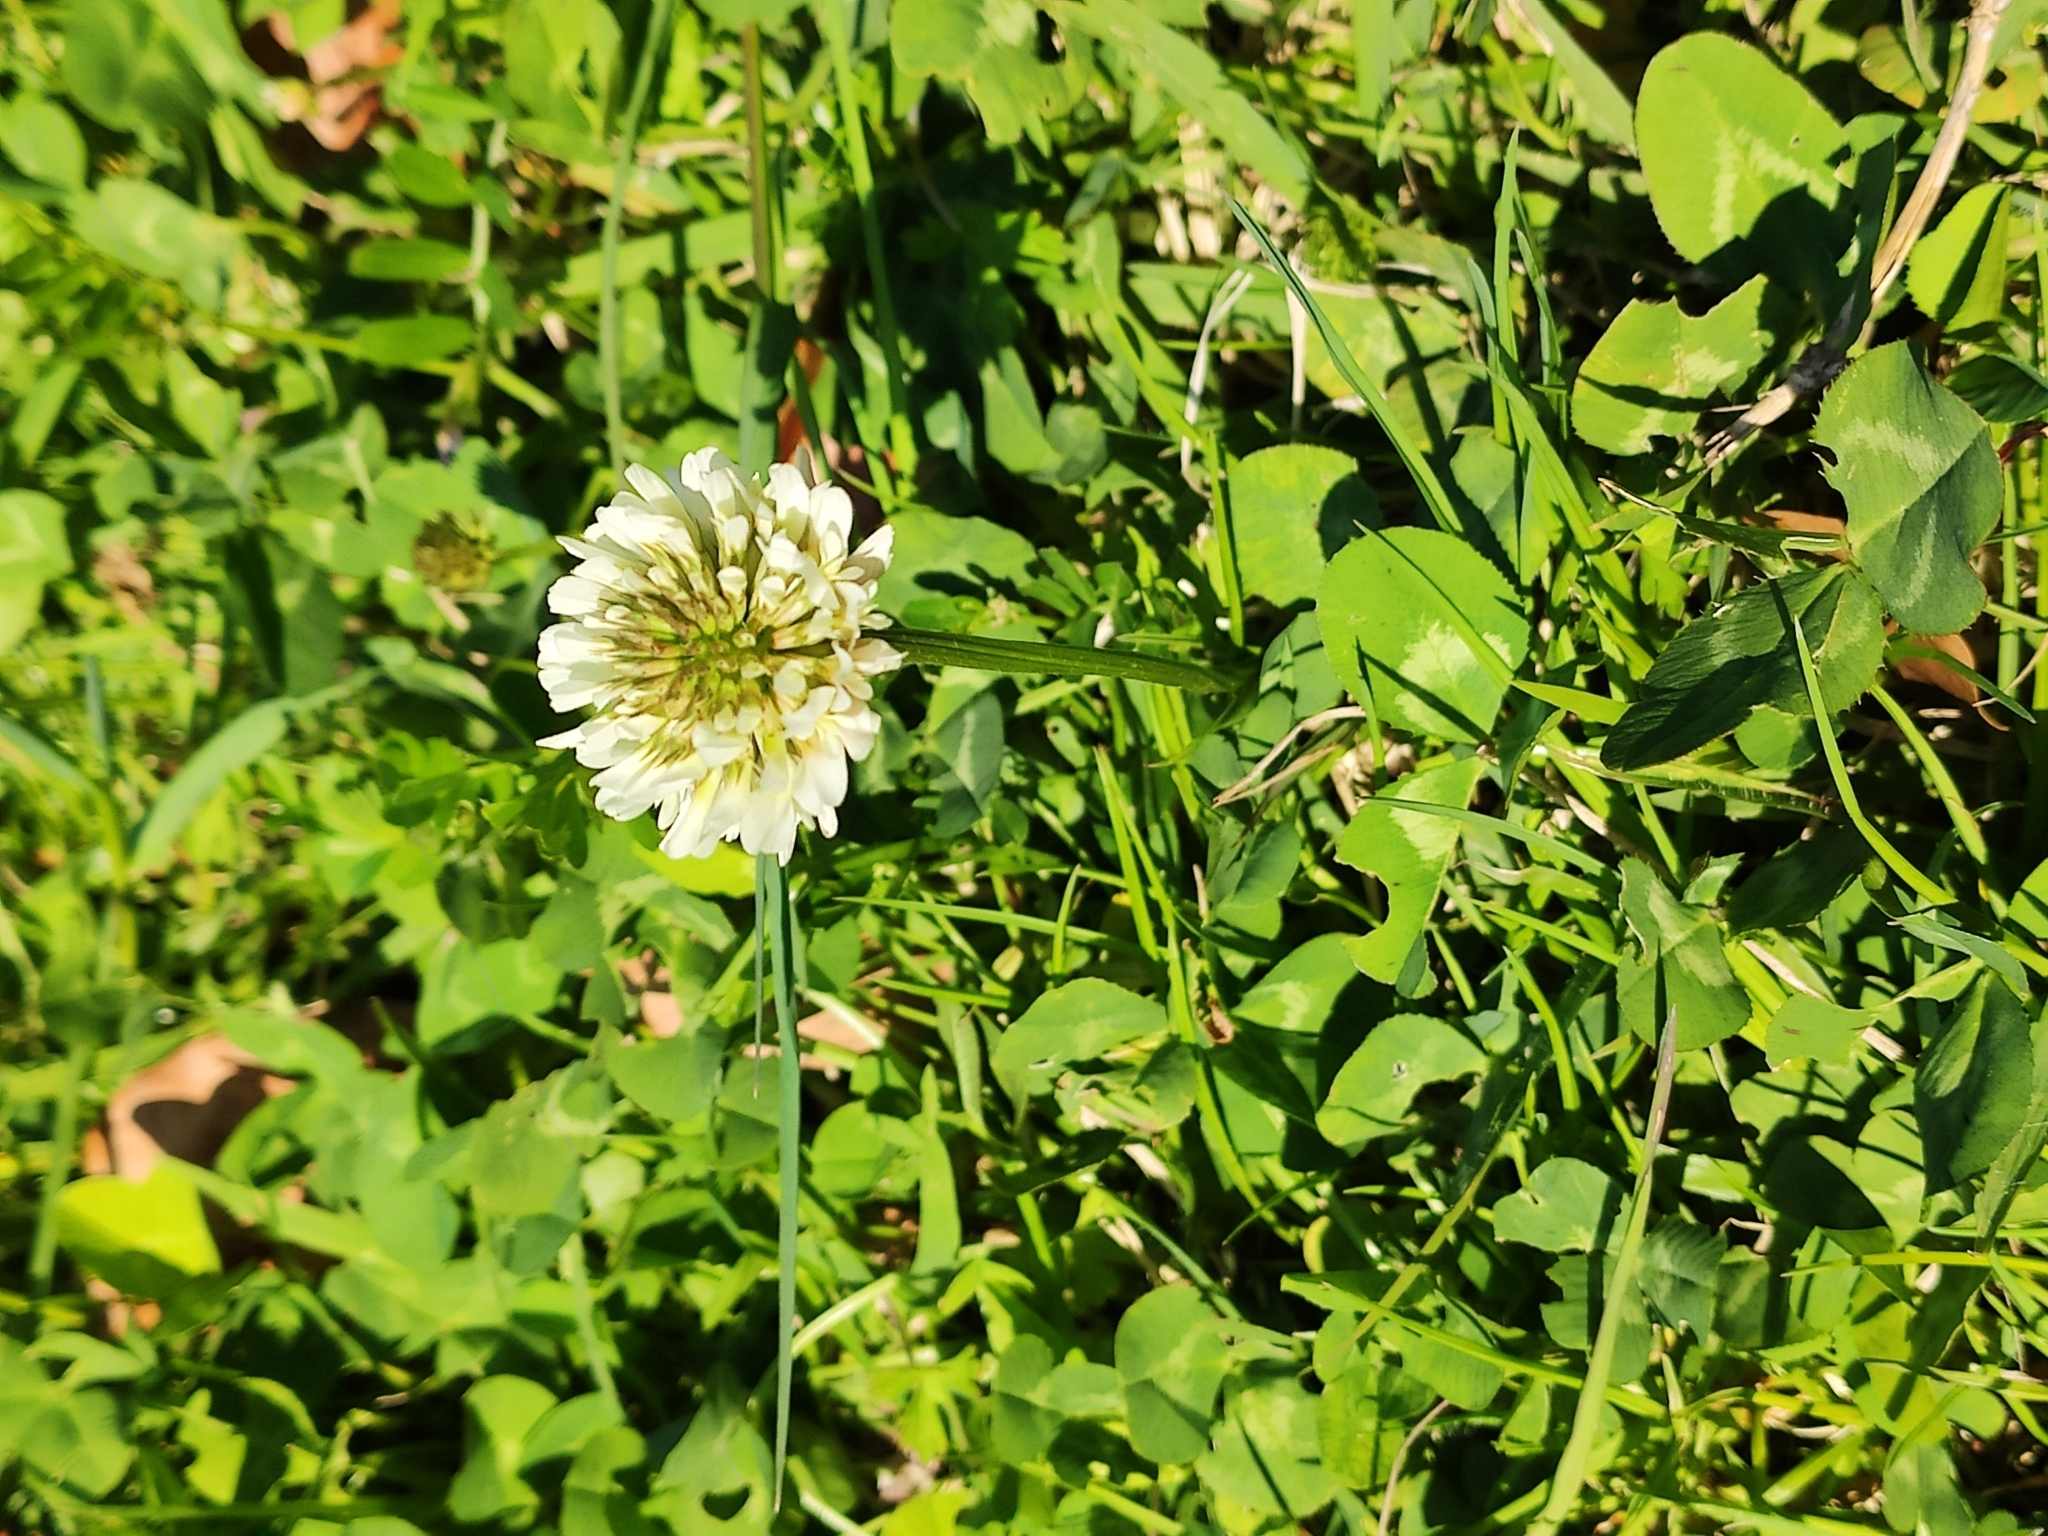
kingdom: Plantae
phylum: Tracheophyta
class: Magnoliopsida
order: Fabales
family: Fabaceae
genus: Trifolium
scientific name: Trifolium repens
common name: White clover
